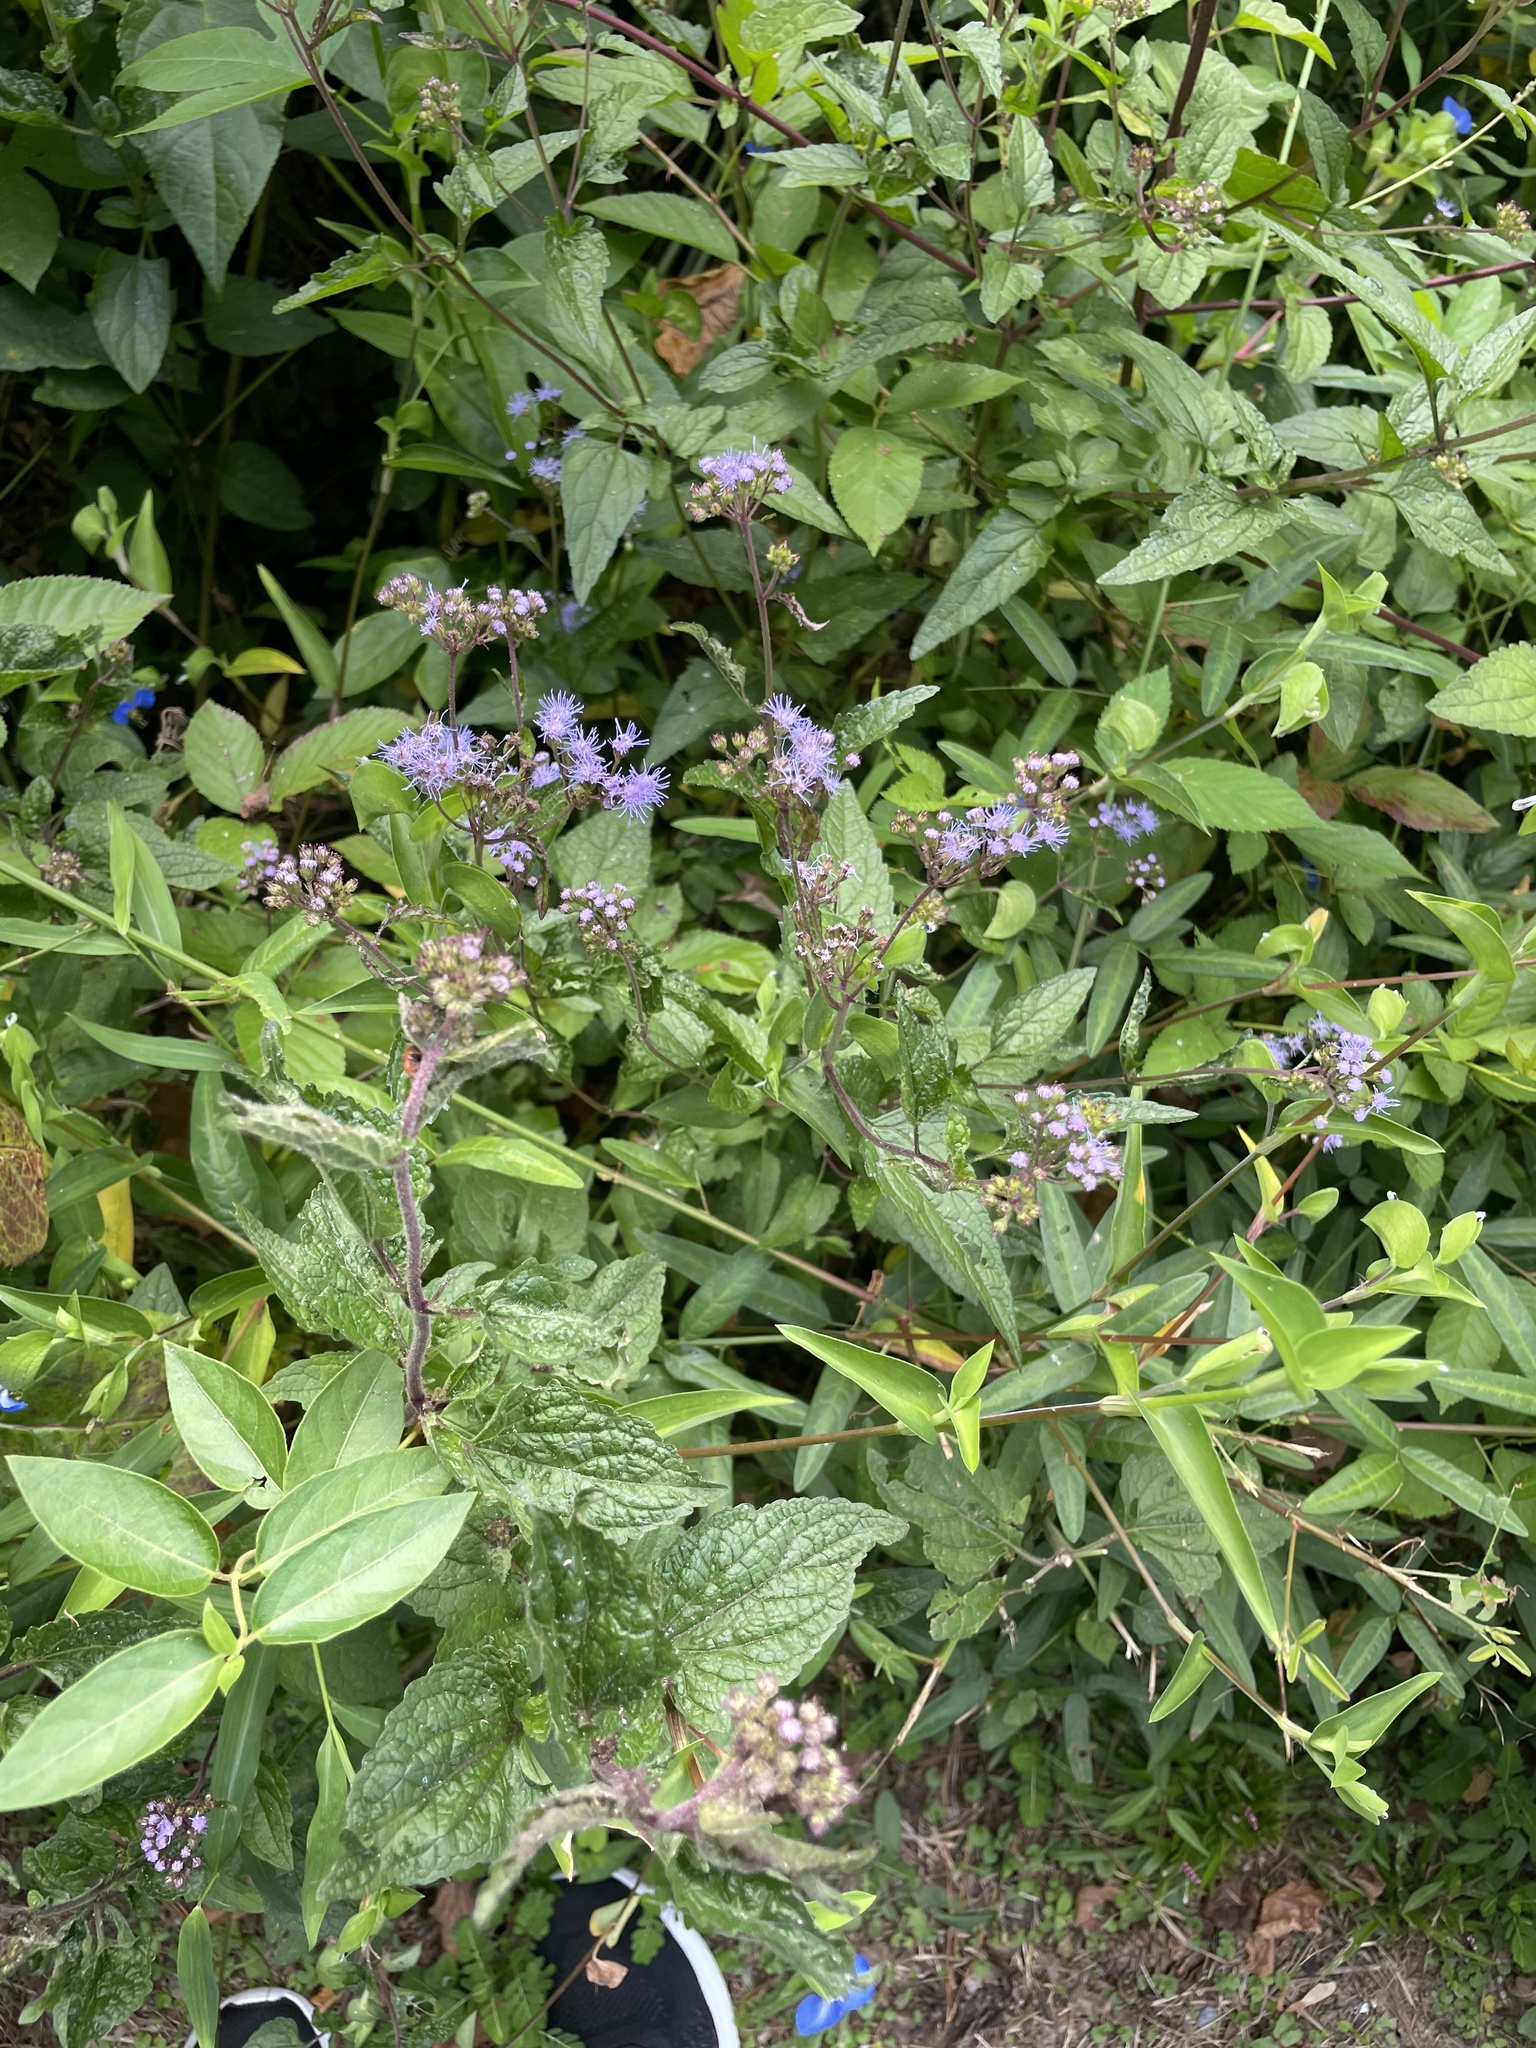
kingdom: Plantae
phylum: Tracheophyta
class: Magnoliopsida
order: Asterales
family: Asteraceae
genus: Conoclinium
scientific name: Conoclinium coelestinum
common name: Blue mistflower
